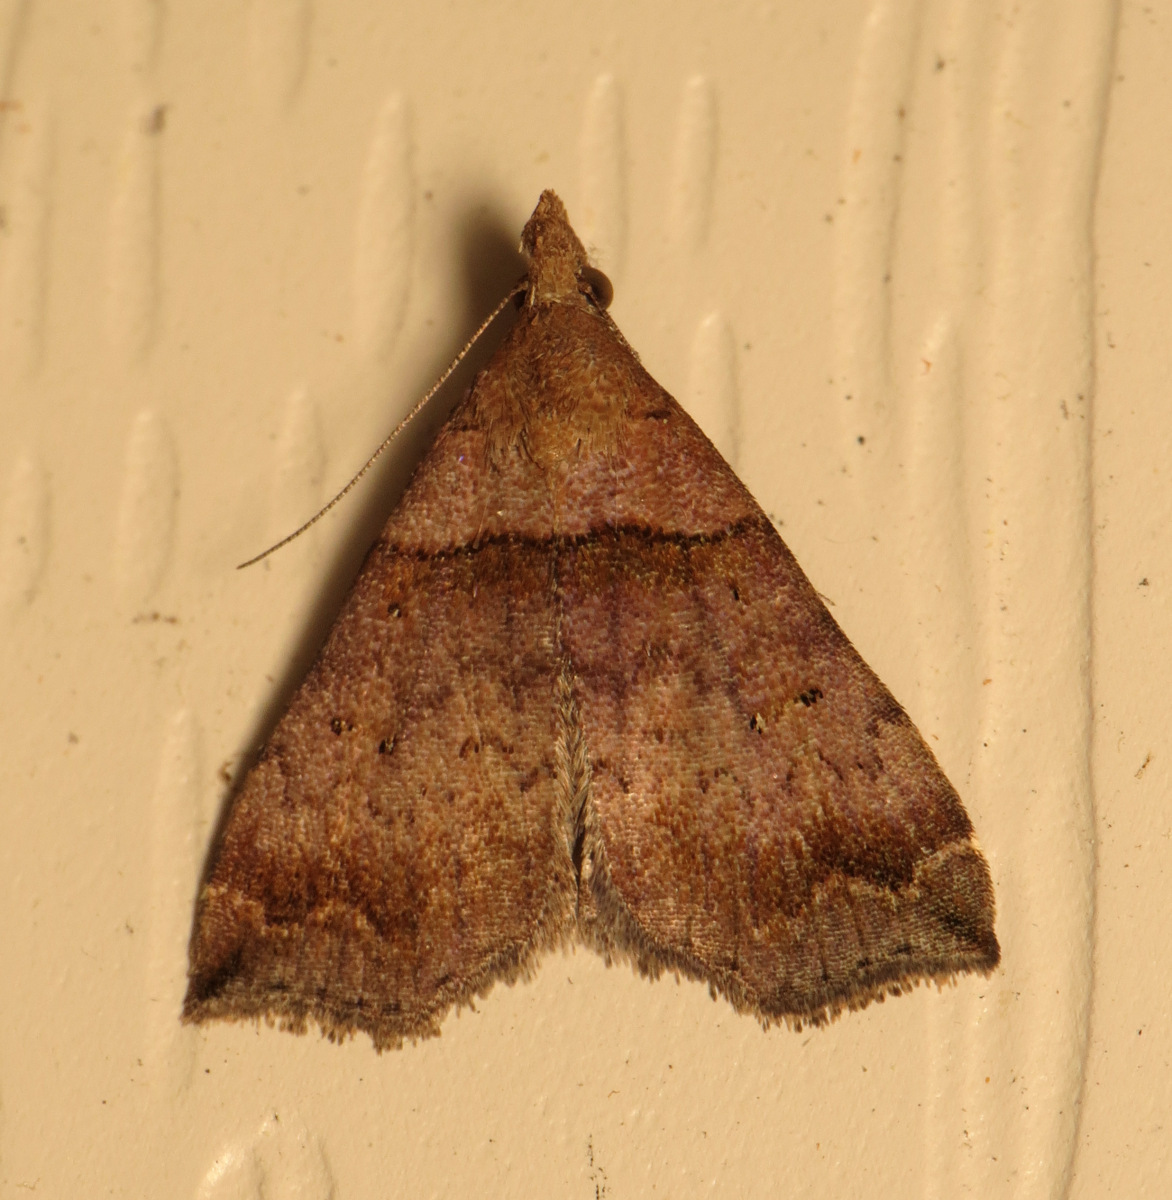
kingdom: Animalia
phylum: Arthropoda
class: Insecta
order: Lepidoptera
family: Erebidae
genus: Lascoria
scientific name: Lascoria ambigualis
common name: Ambiguous moth
